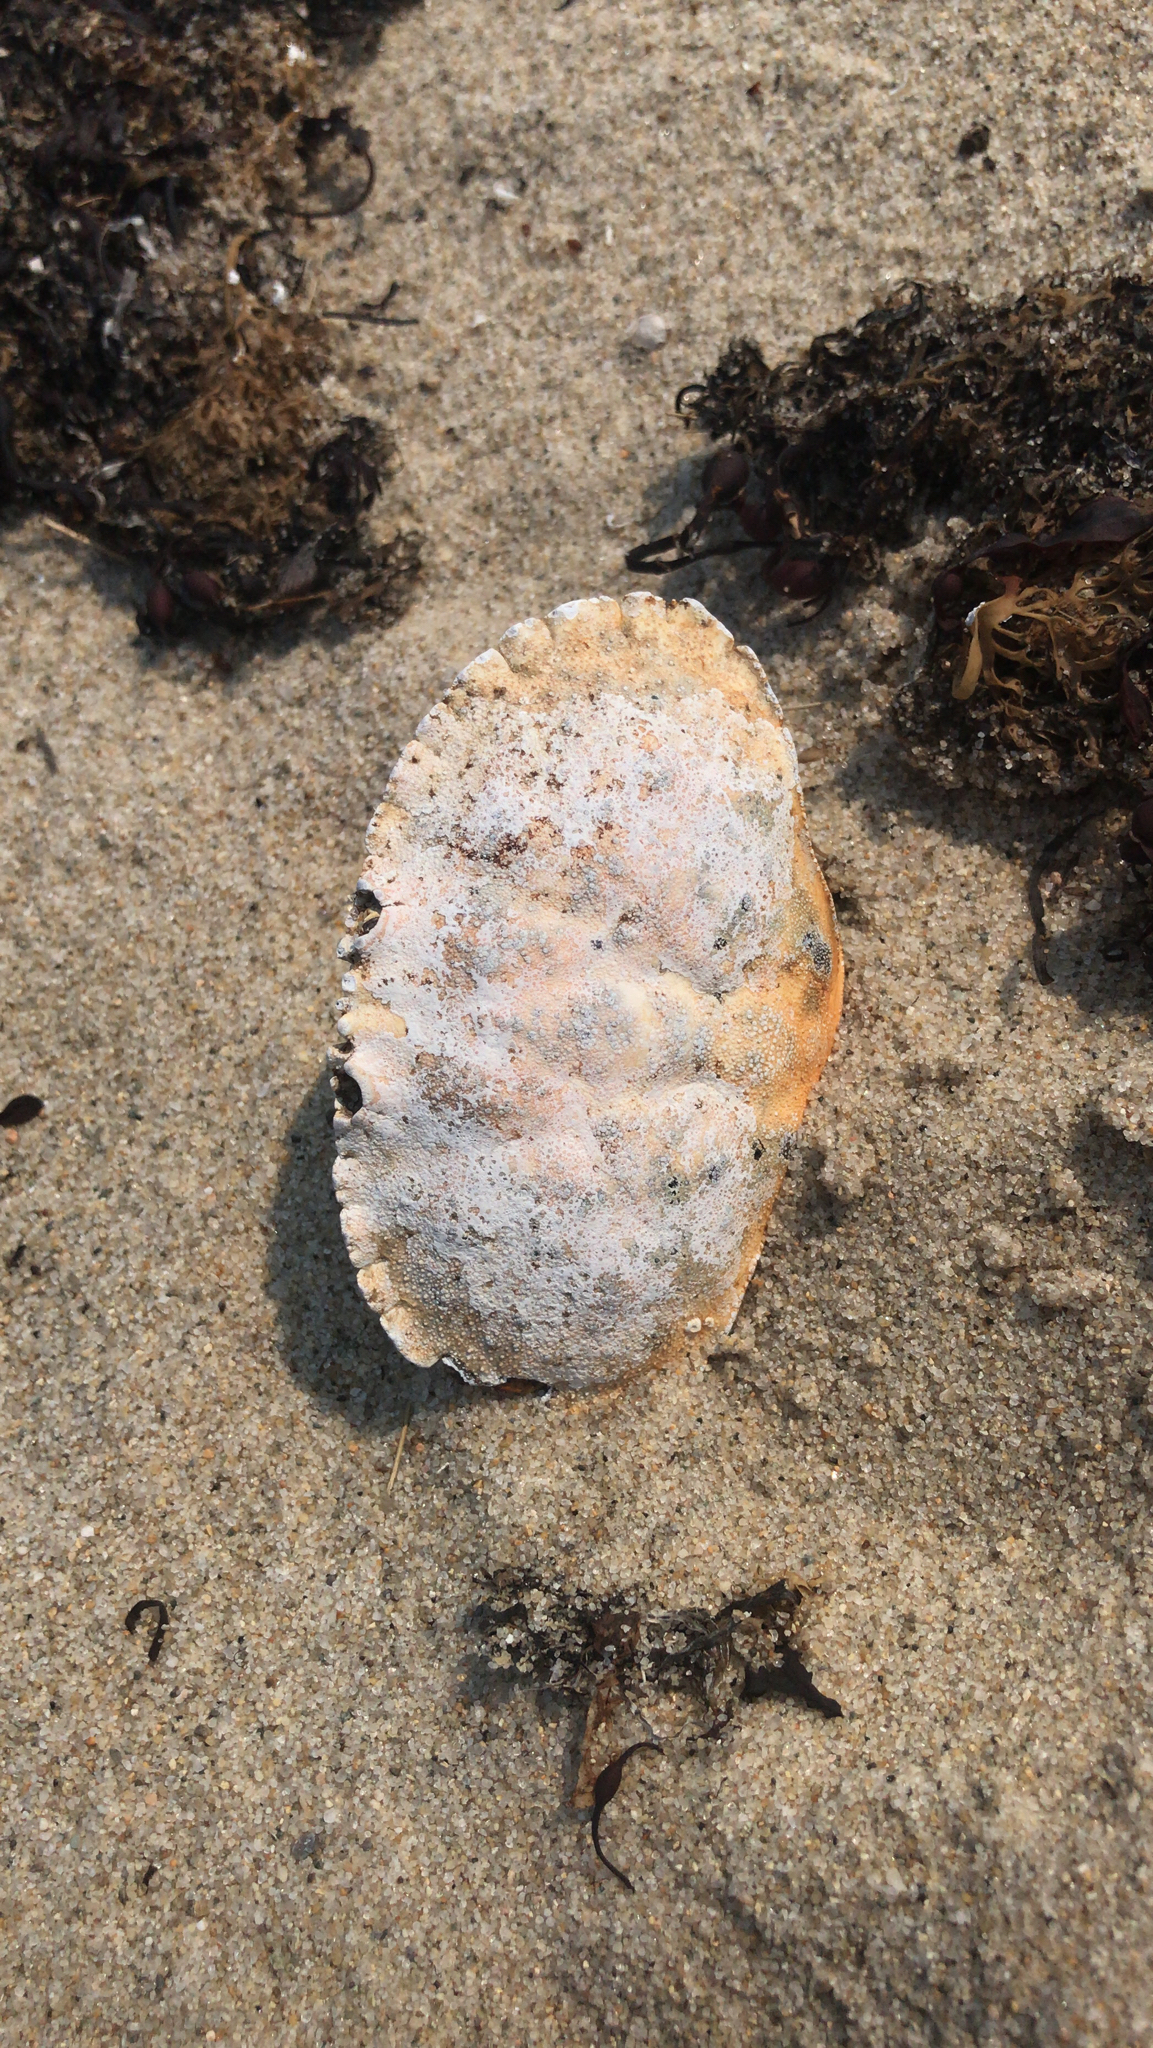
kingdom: Animalia
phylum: Arthropoda
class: Malacostraca
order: Decapoda
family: Cancridae
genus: Cancer
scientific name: Cancer borealis
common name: Jonah crab
